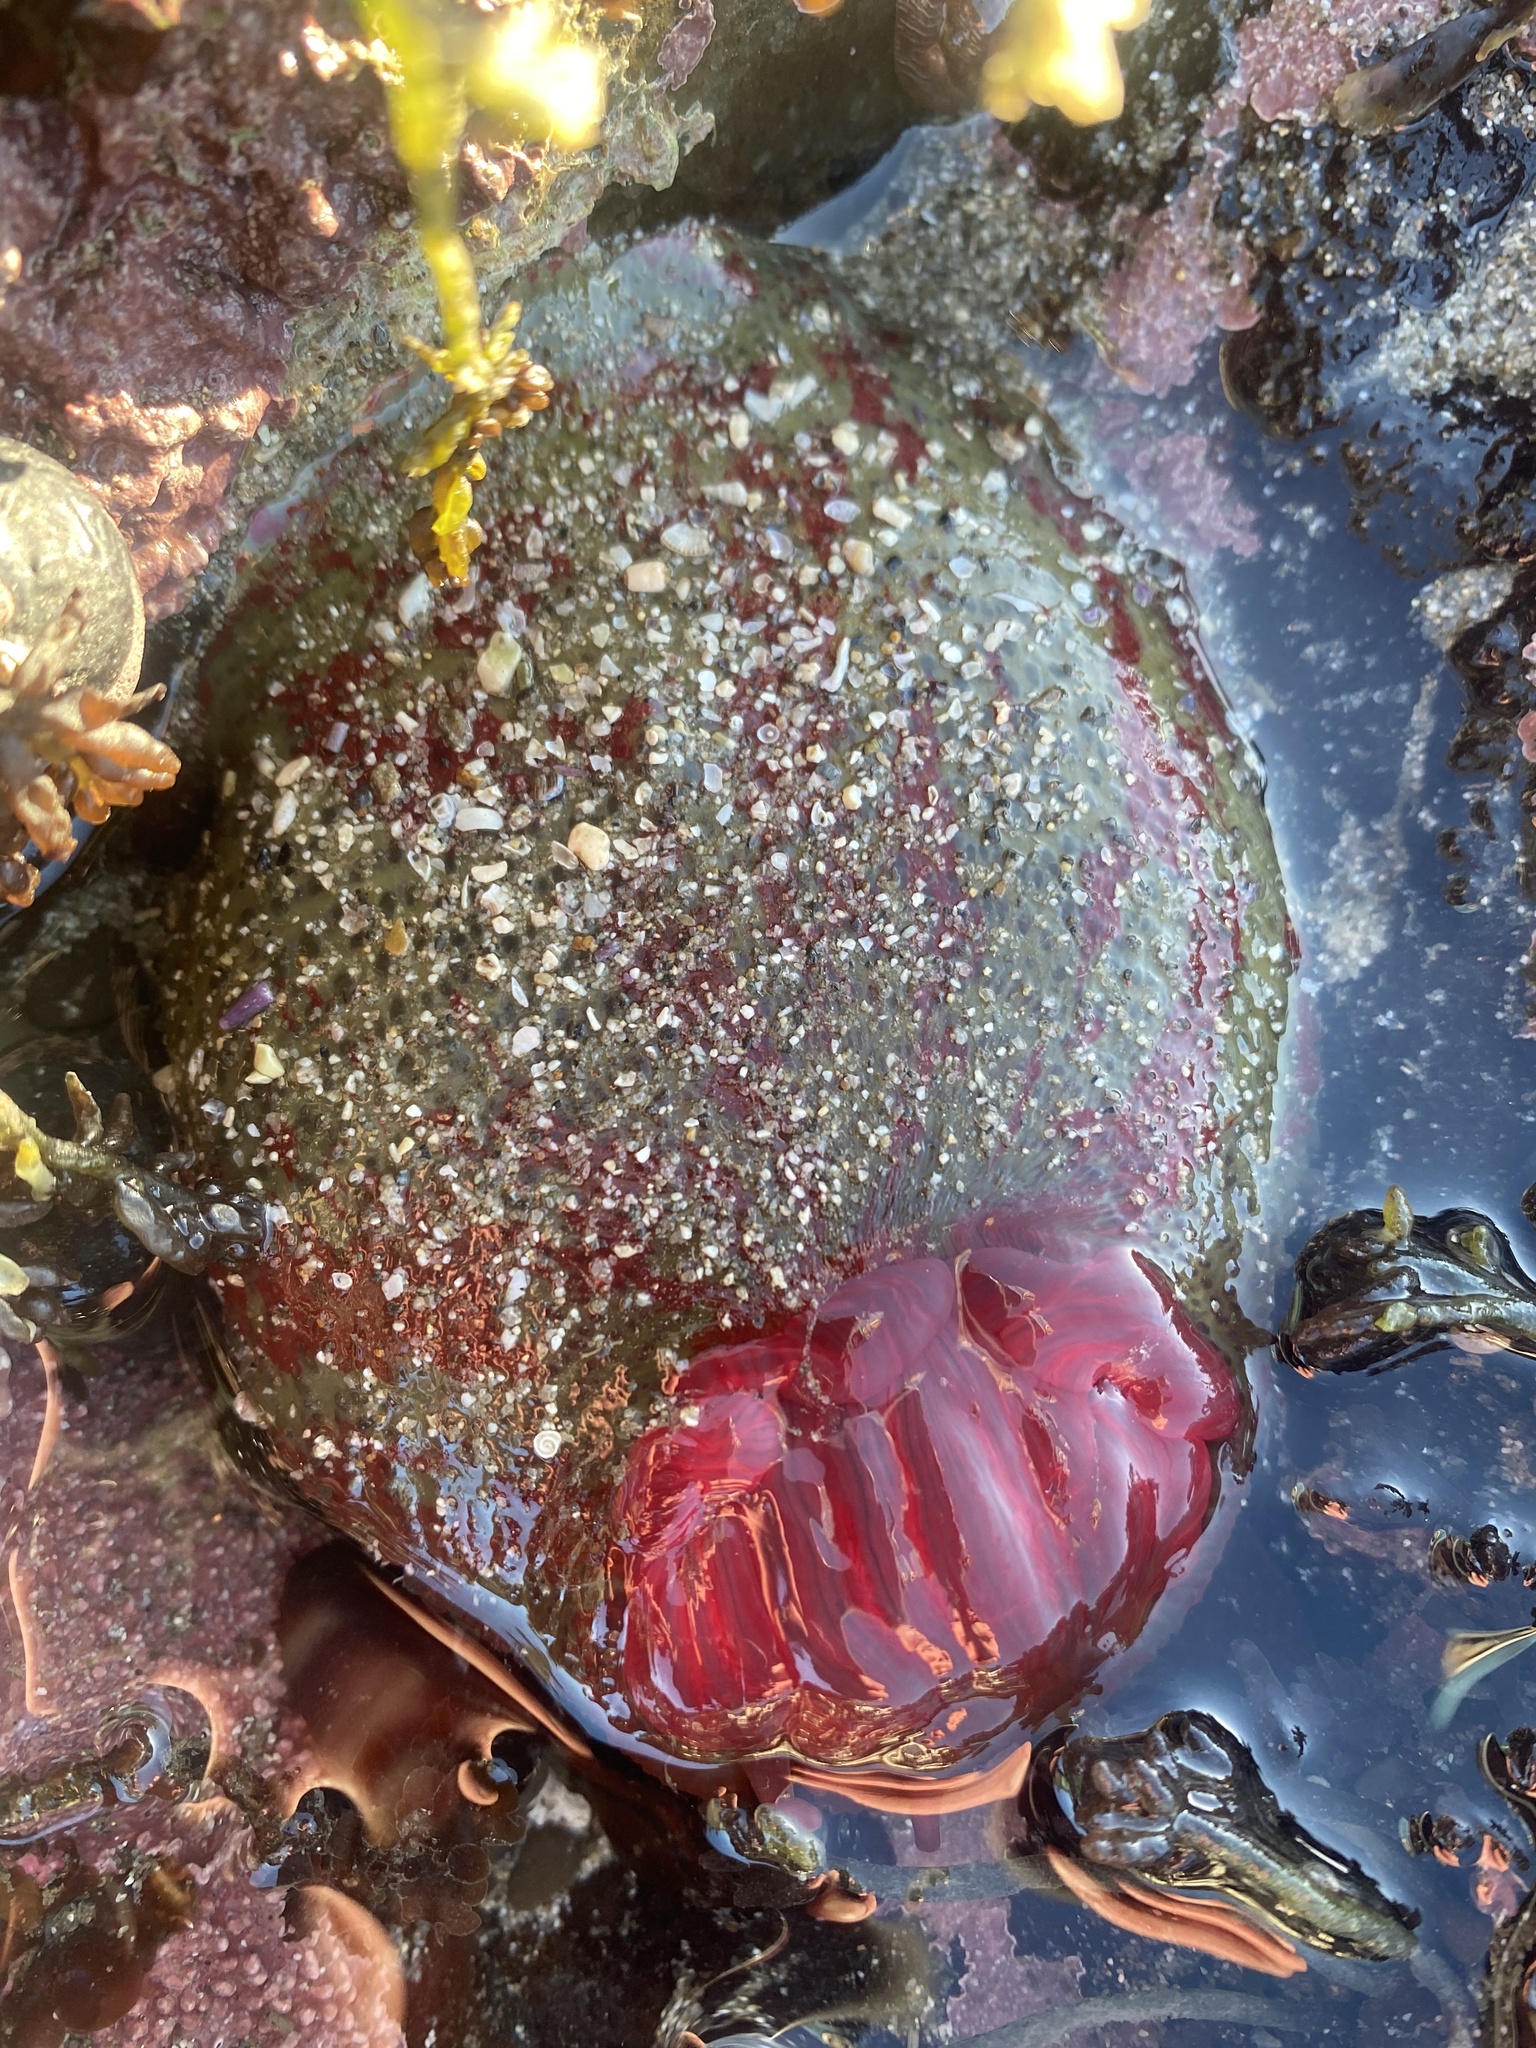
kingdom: Animalia
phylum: Cnidaria
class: Anthozoa
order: Actiniaria
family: Actiniidae
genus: Urticina
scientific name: Urticina grebelnyi
